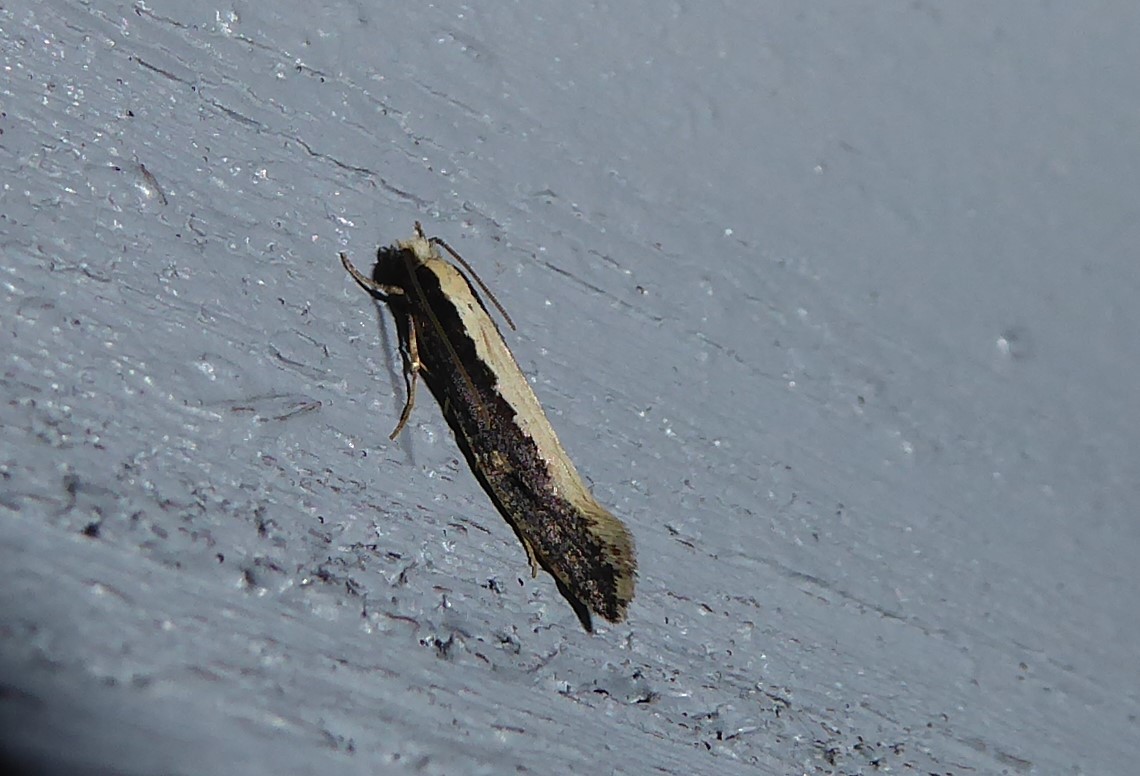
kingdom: Animalia
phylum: Arthropoda
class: Insecta
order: Lepidoptera
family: Tineidae
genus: Monopis
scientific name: Monopis ethelella
